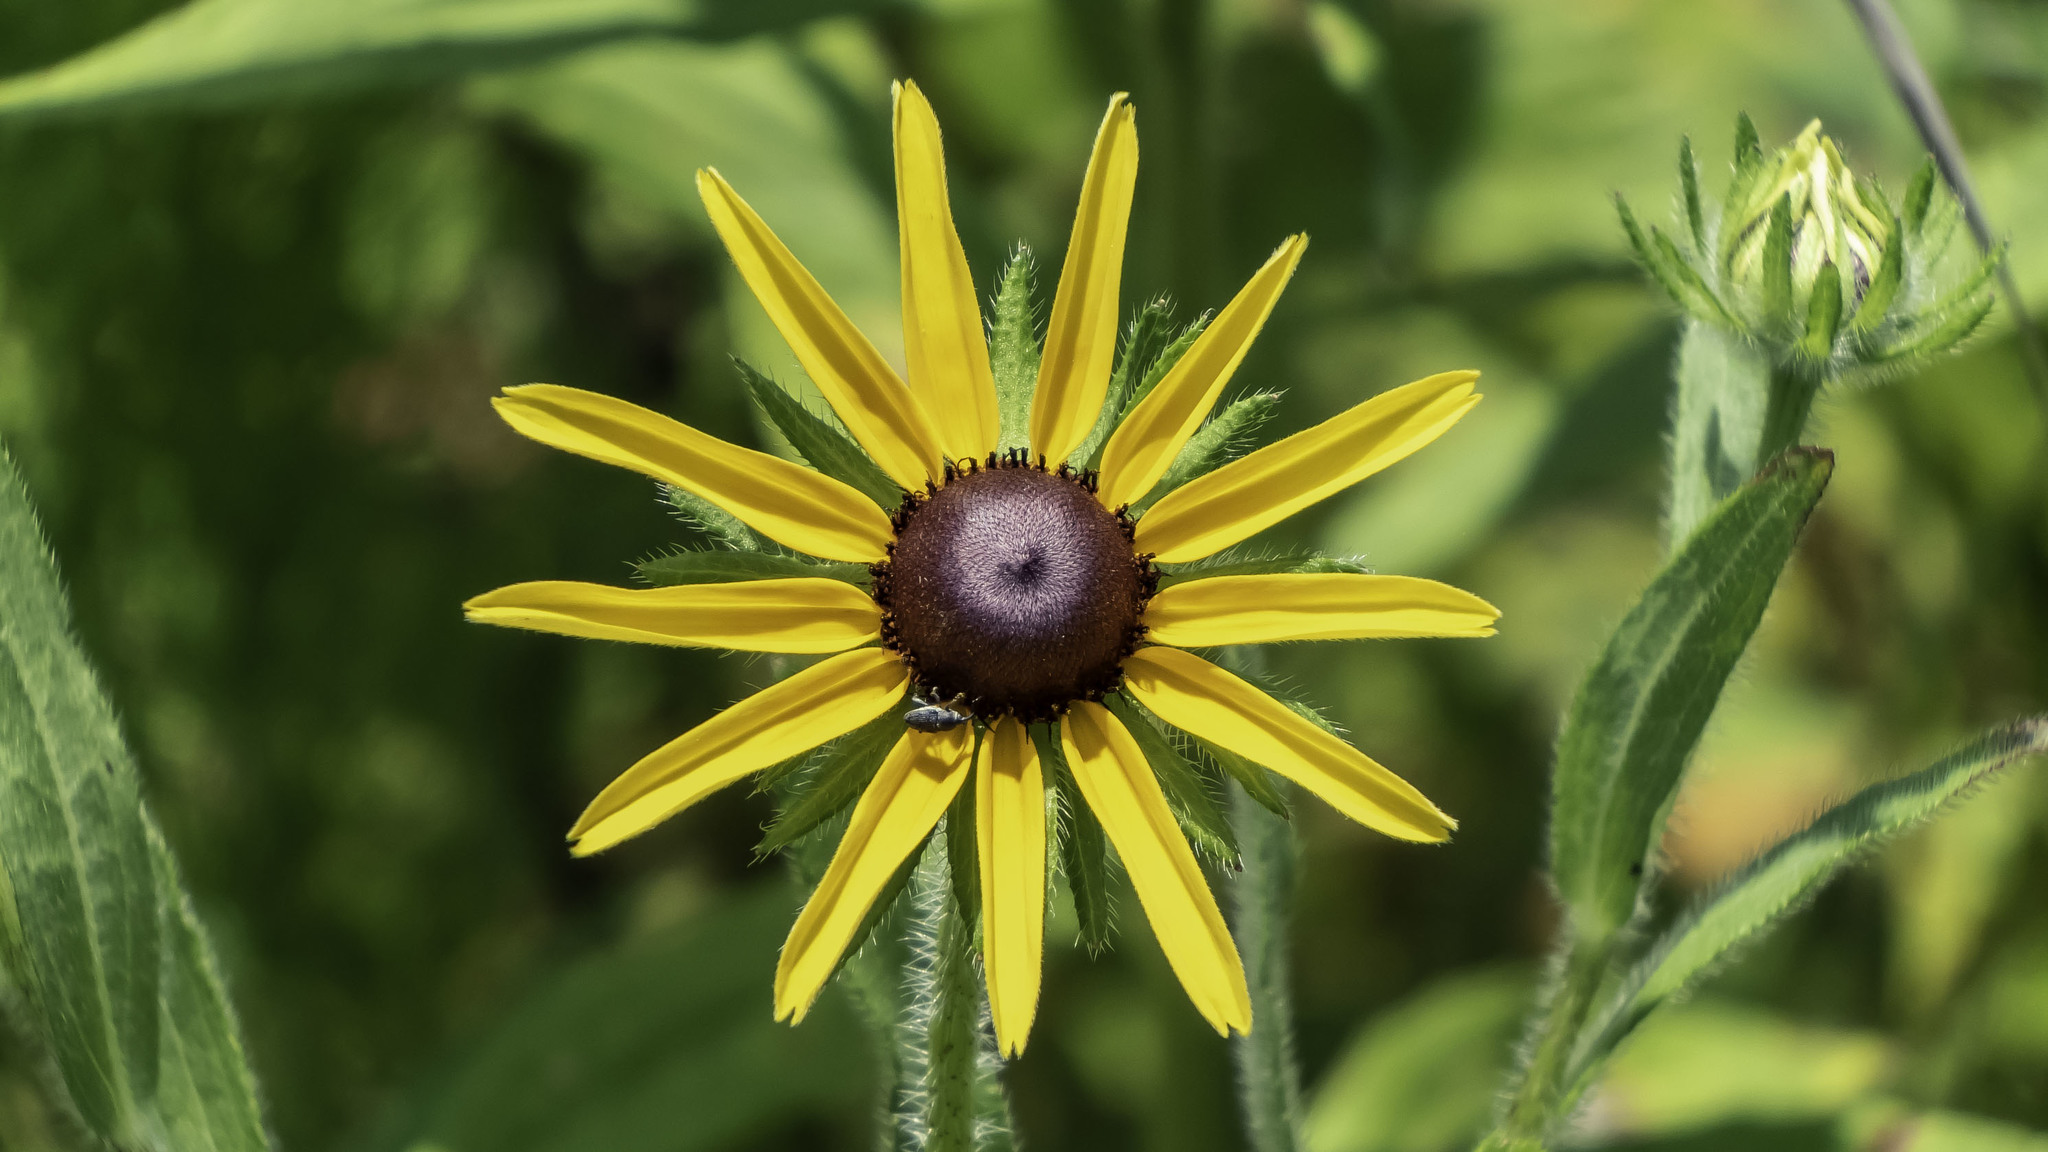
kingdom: Plantae
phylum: Tracheophyta
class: Magnoliopsida
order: Asterales
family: Asteraceae
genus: Rudbeckia
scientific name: Rudbeckia hirta
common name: Black-eyed-susan
